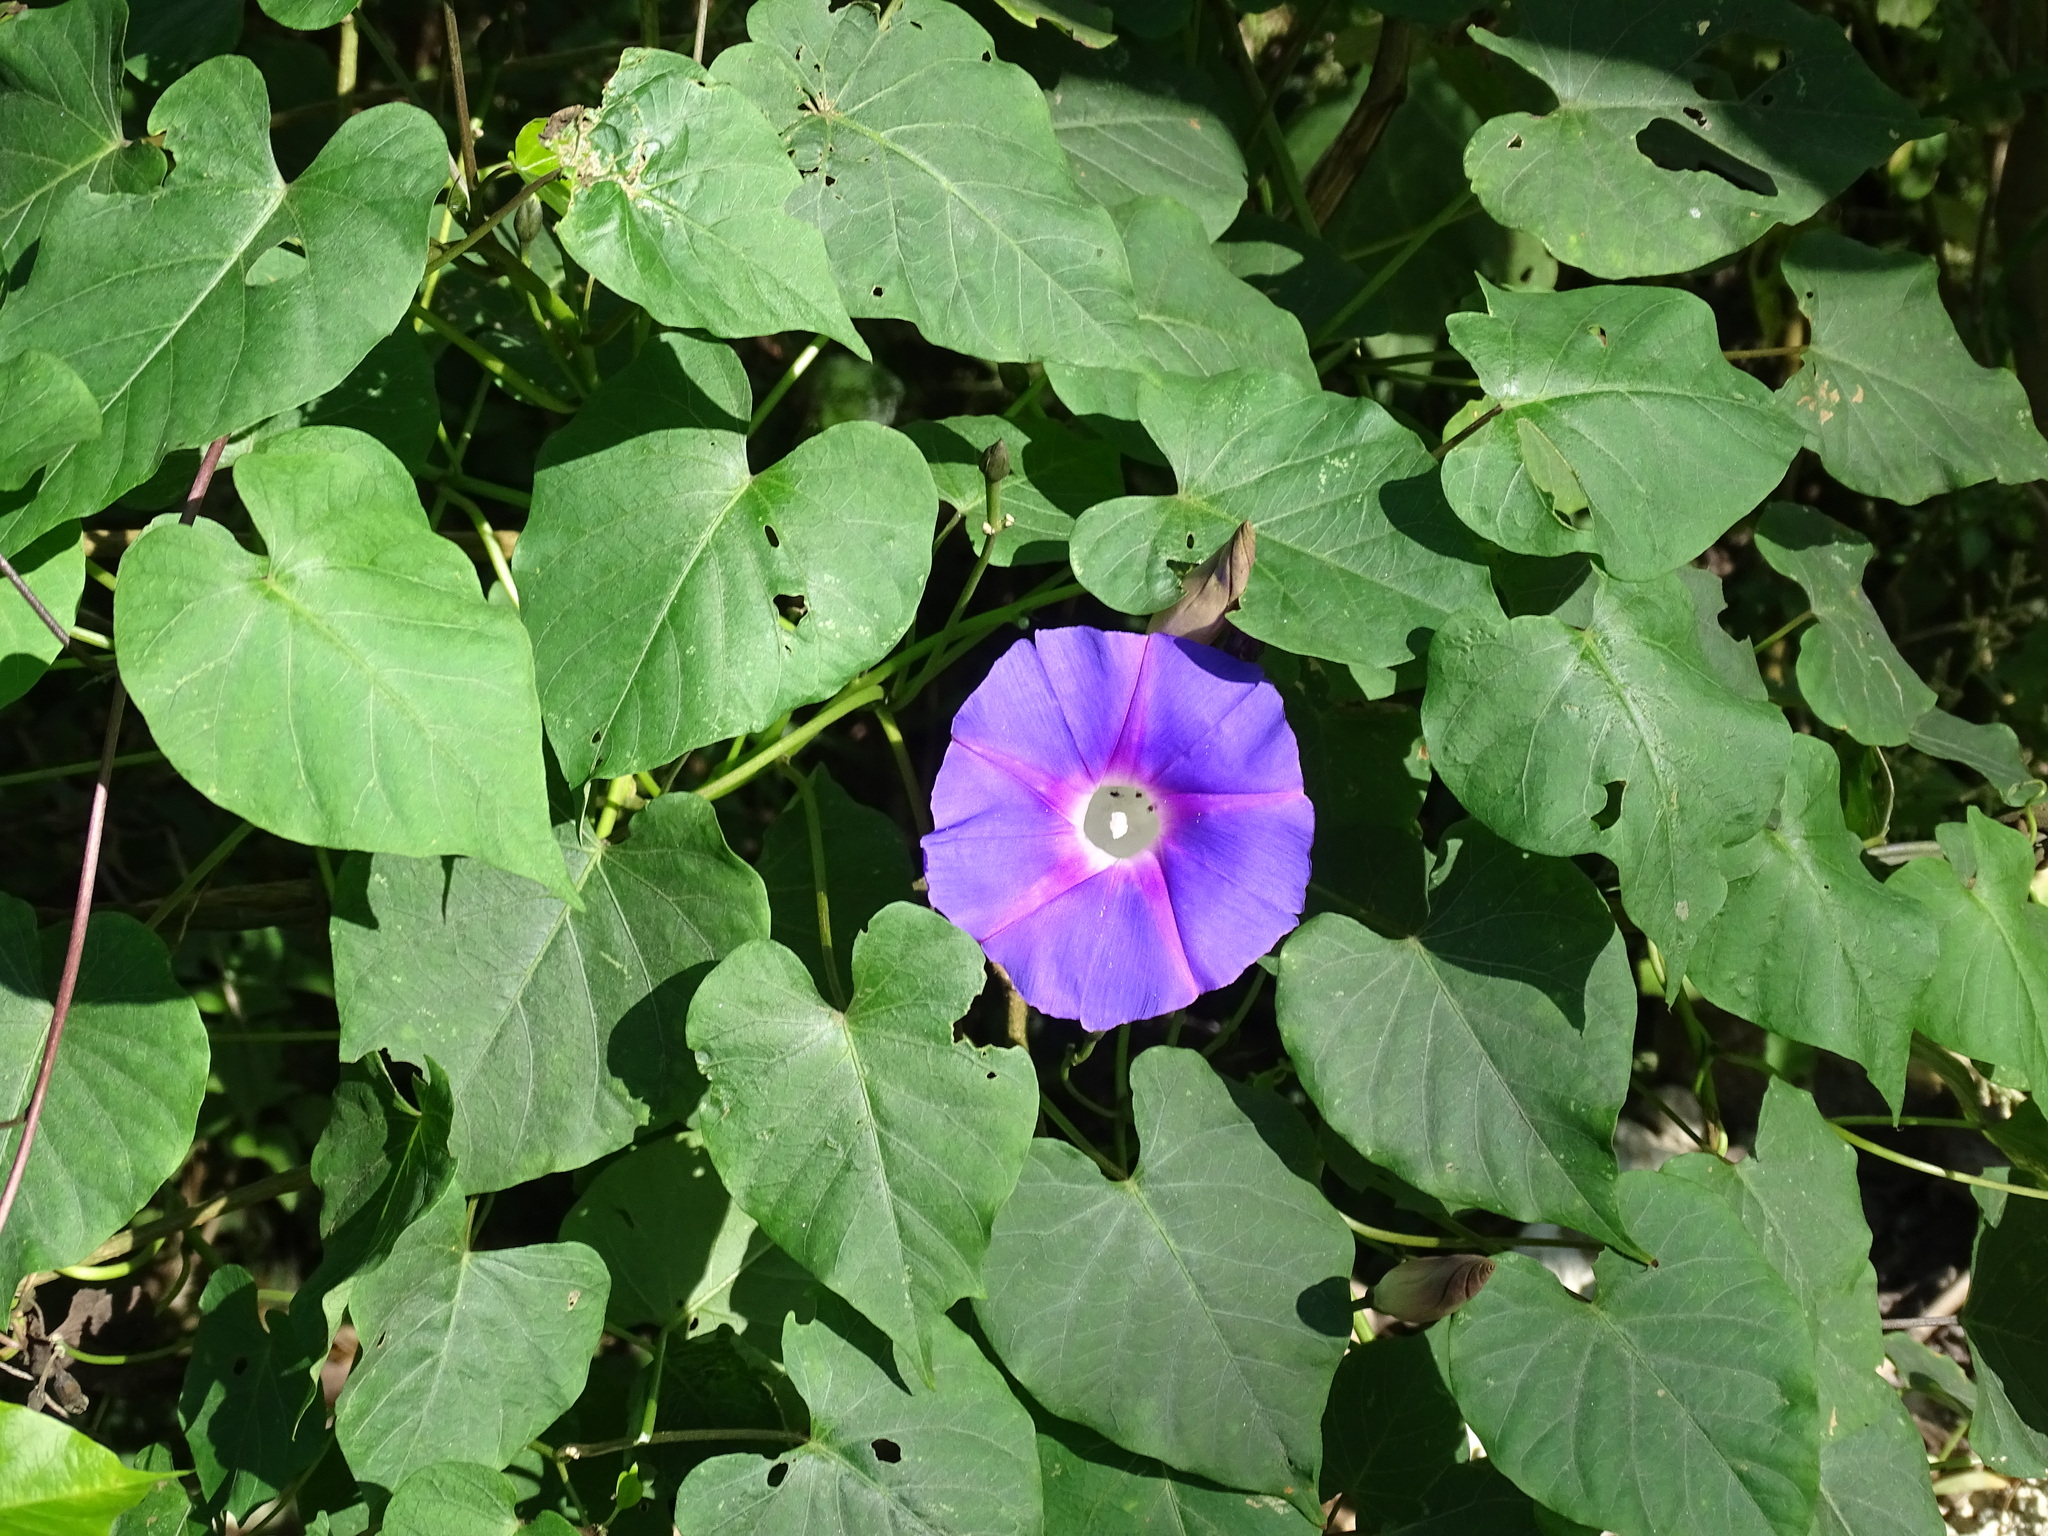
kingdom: Plantae
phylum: Tracheophyta
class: Magnoliopsida
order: Solanales
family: Convolvulaceae
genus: Ipomoea
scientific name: Ipomoea orizabensis
